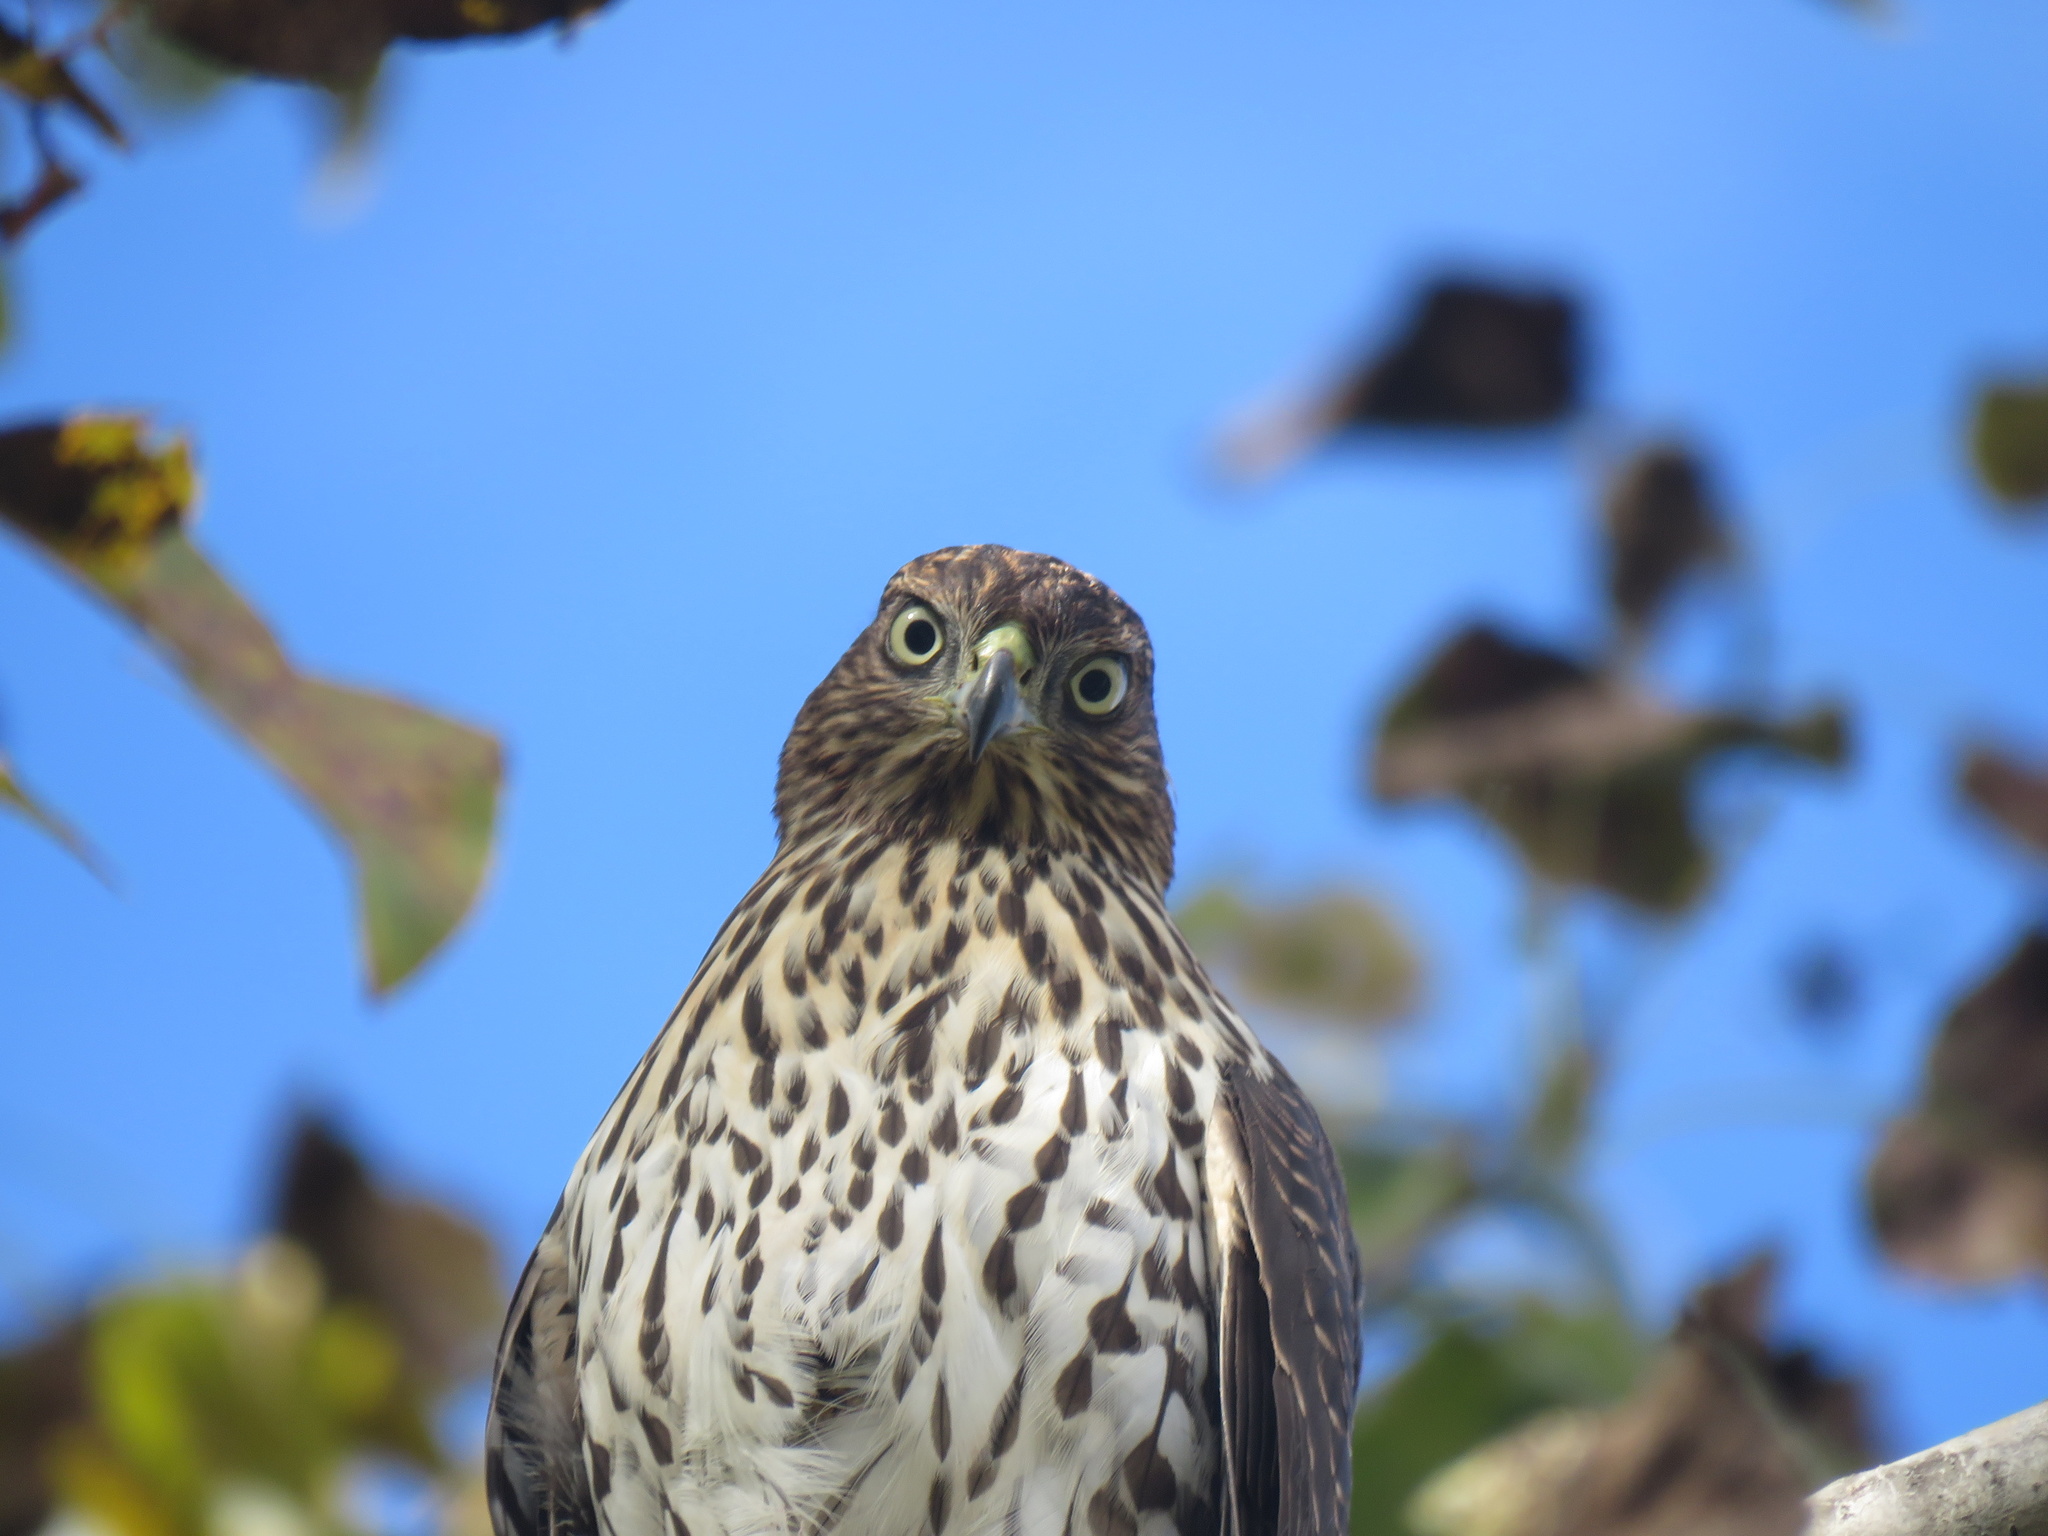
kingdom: Animalia
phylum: Chordata
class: Aves
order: Accipitriformes
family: Accipitridae
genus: Accipiter
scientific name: Accipiter cooperii
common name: Cooper's hawk
